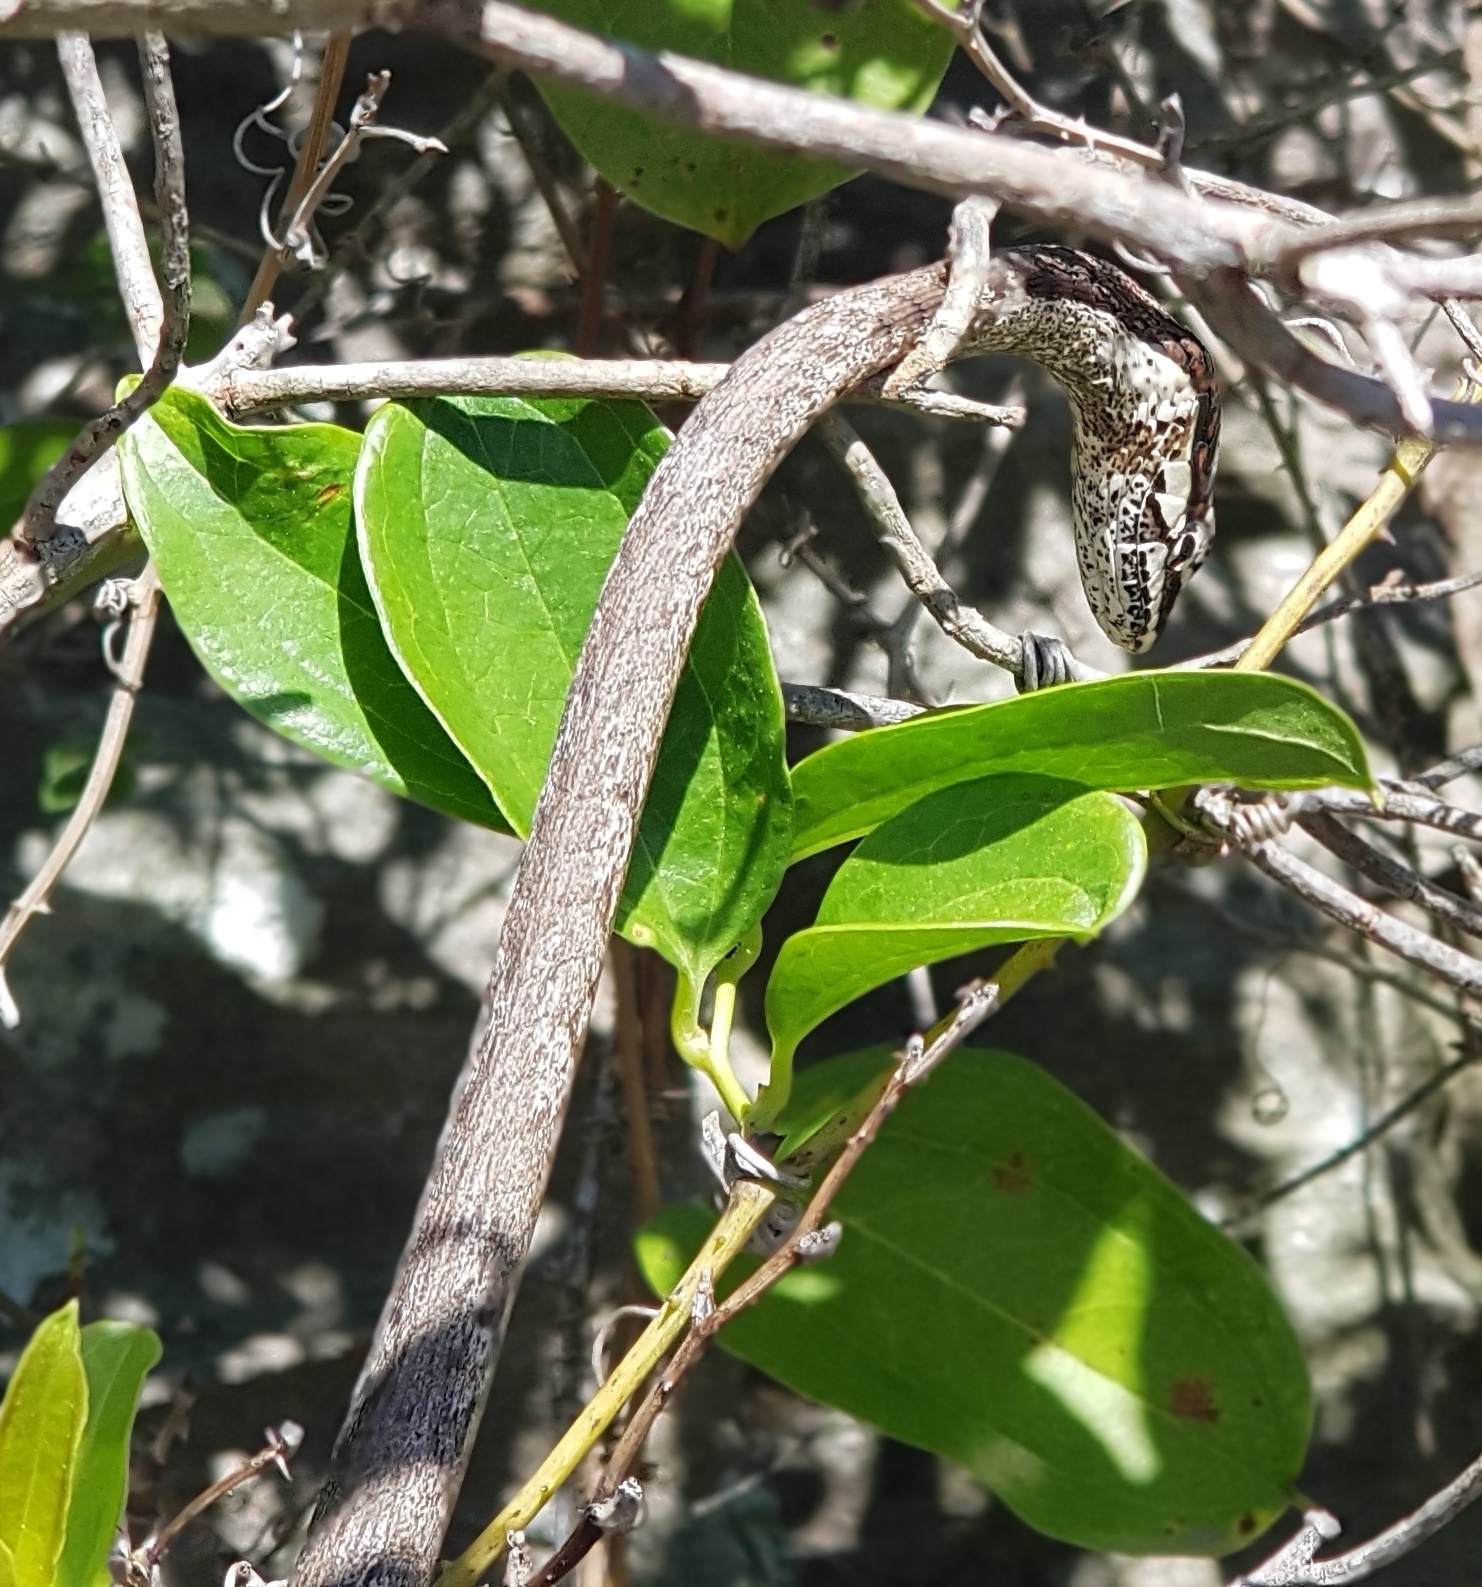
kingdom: Animalia
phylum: Chordata
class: Squamata
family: Colubridae
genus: Thelotornis
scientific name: Thelotornis capensis
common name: Savanna vine snake
